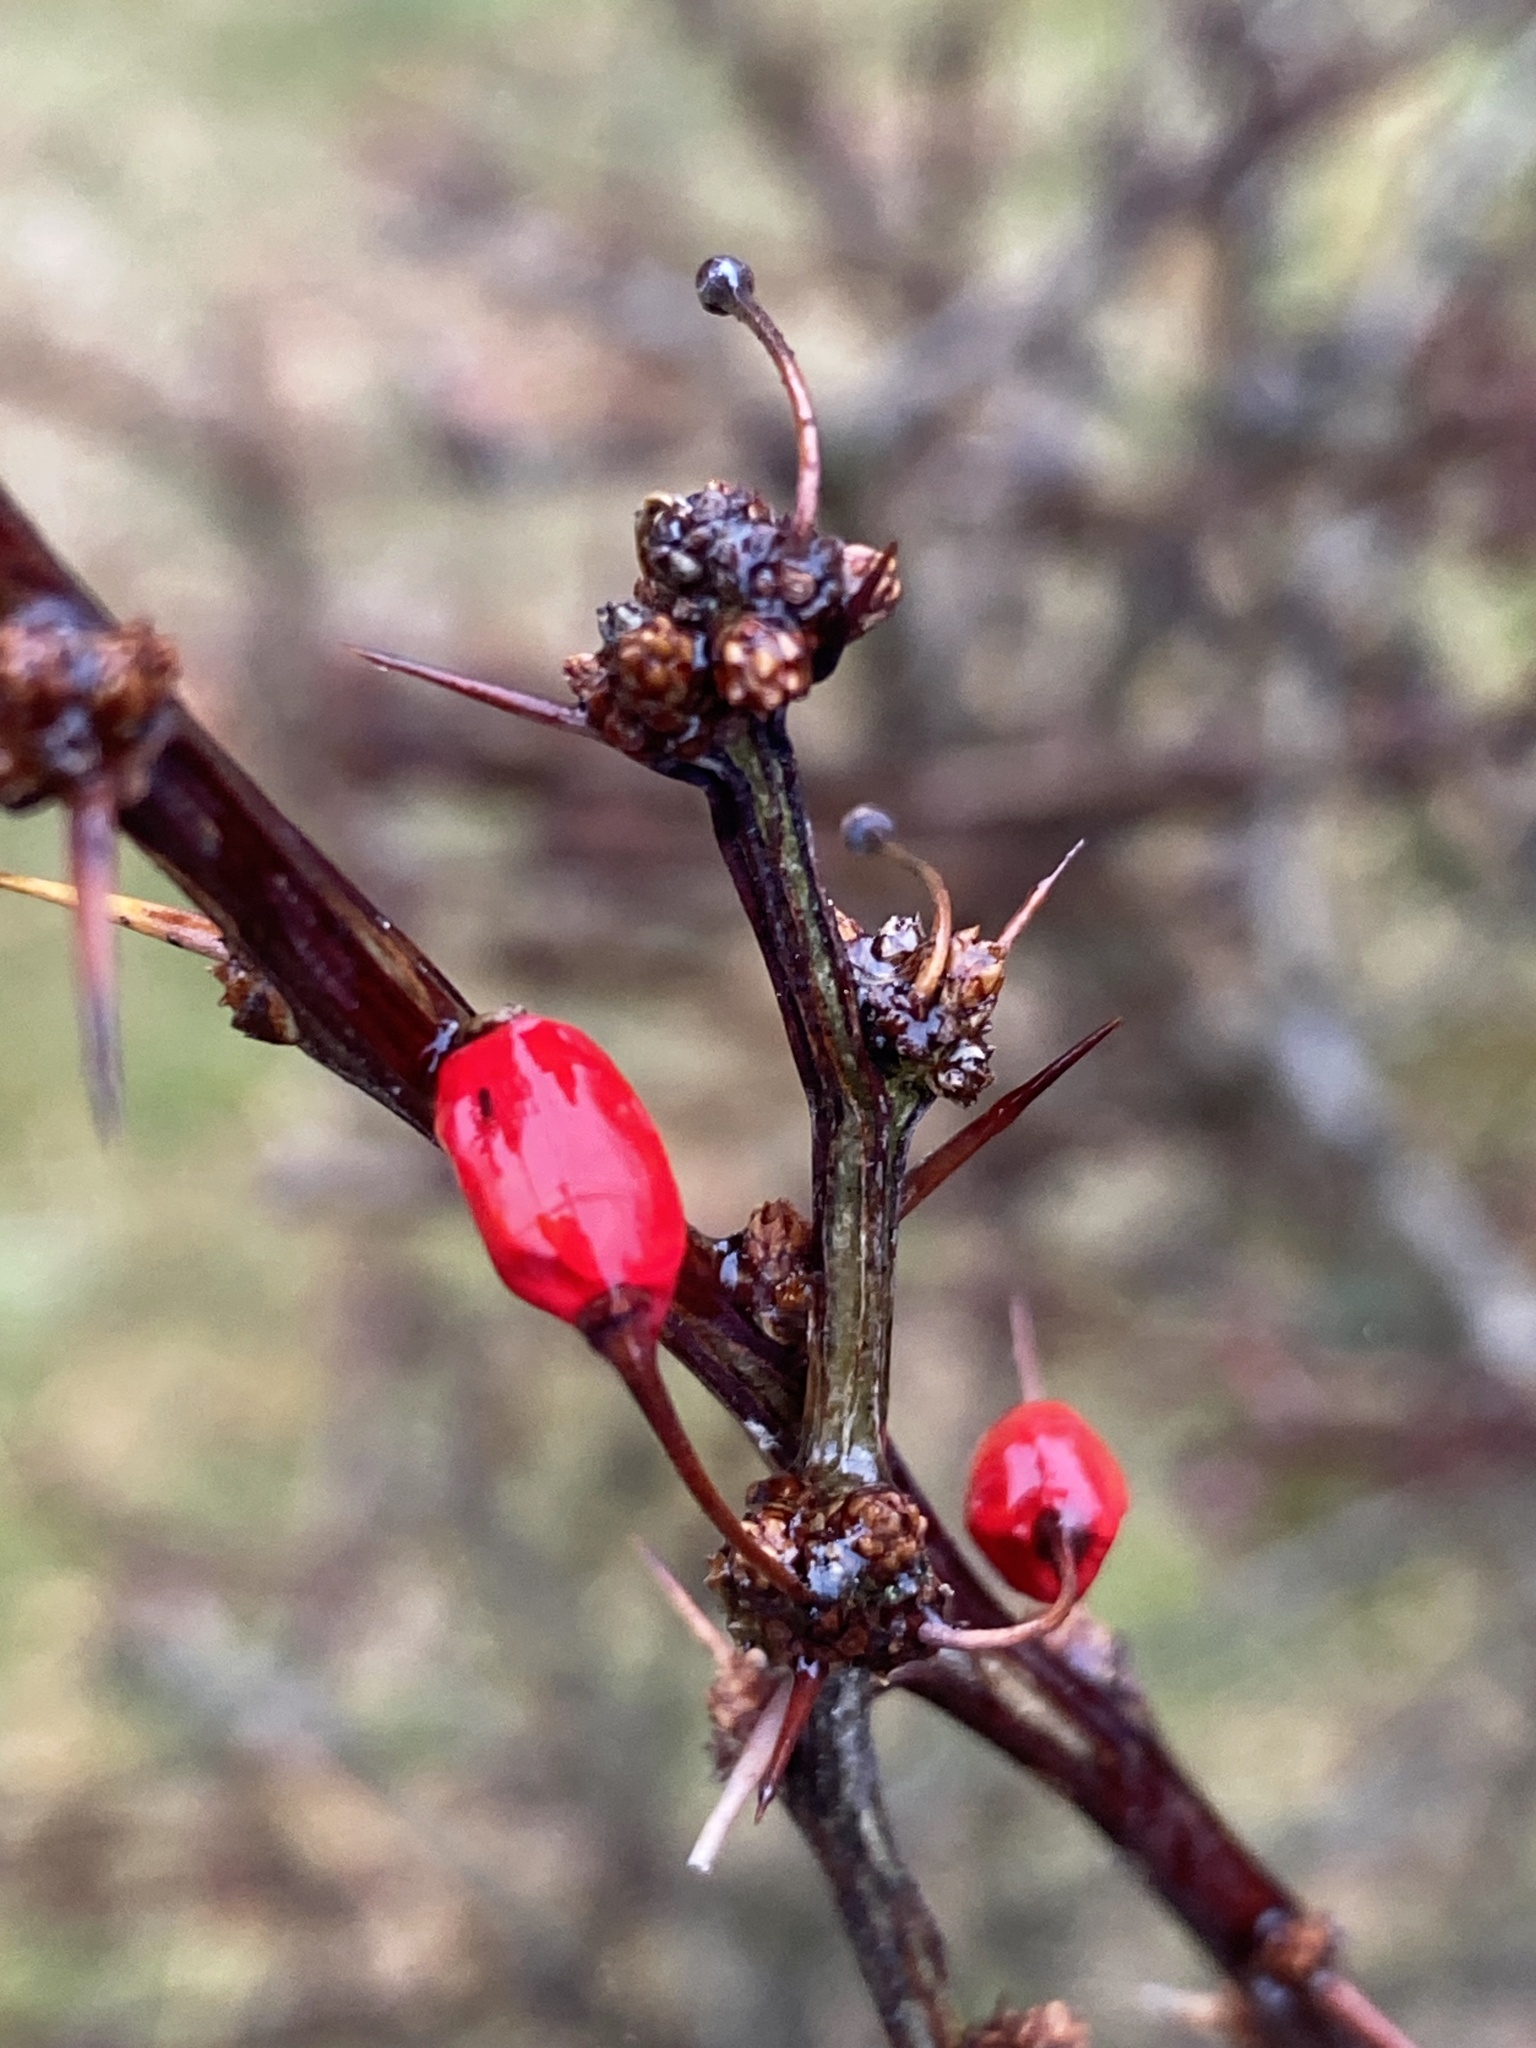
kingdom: Plantae
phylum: Tracheophyta
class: Magnoliopsida
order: Ranunculales
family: Berberidaceae
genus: Berberis
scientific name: Berberis thunbergii
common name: Japanese barberry
